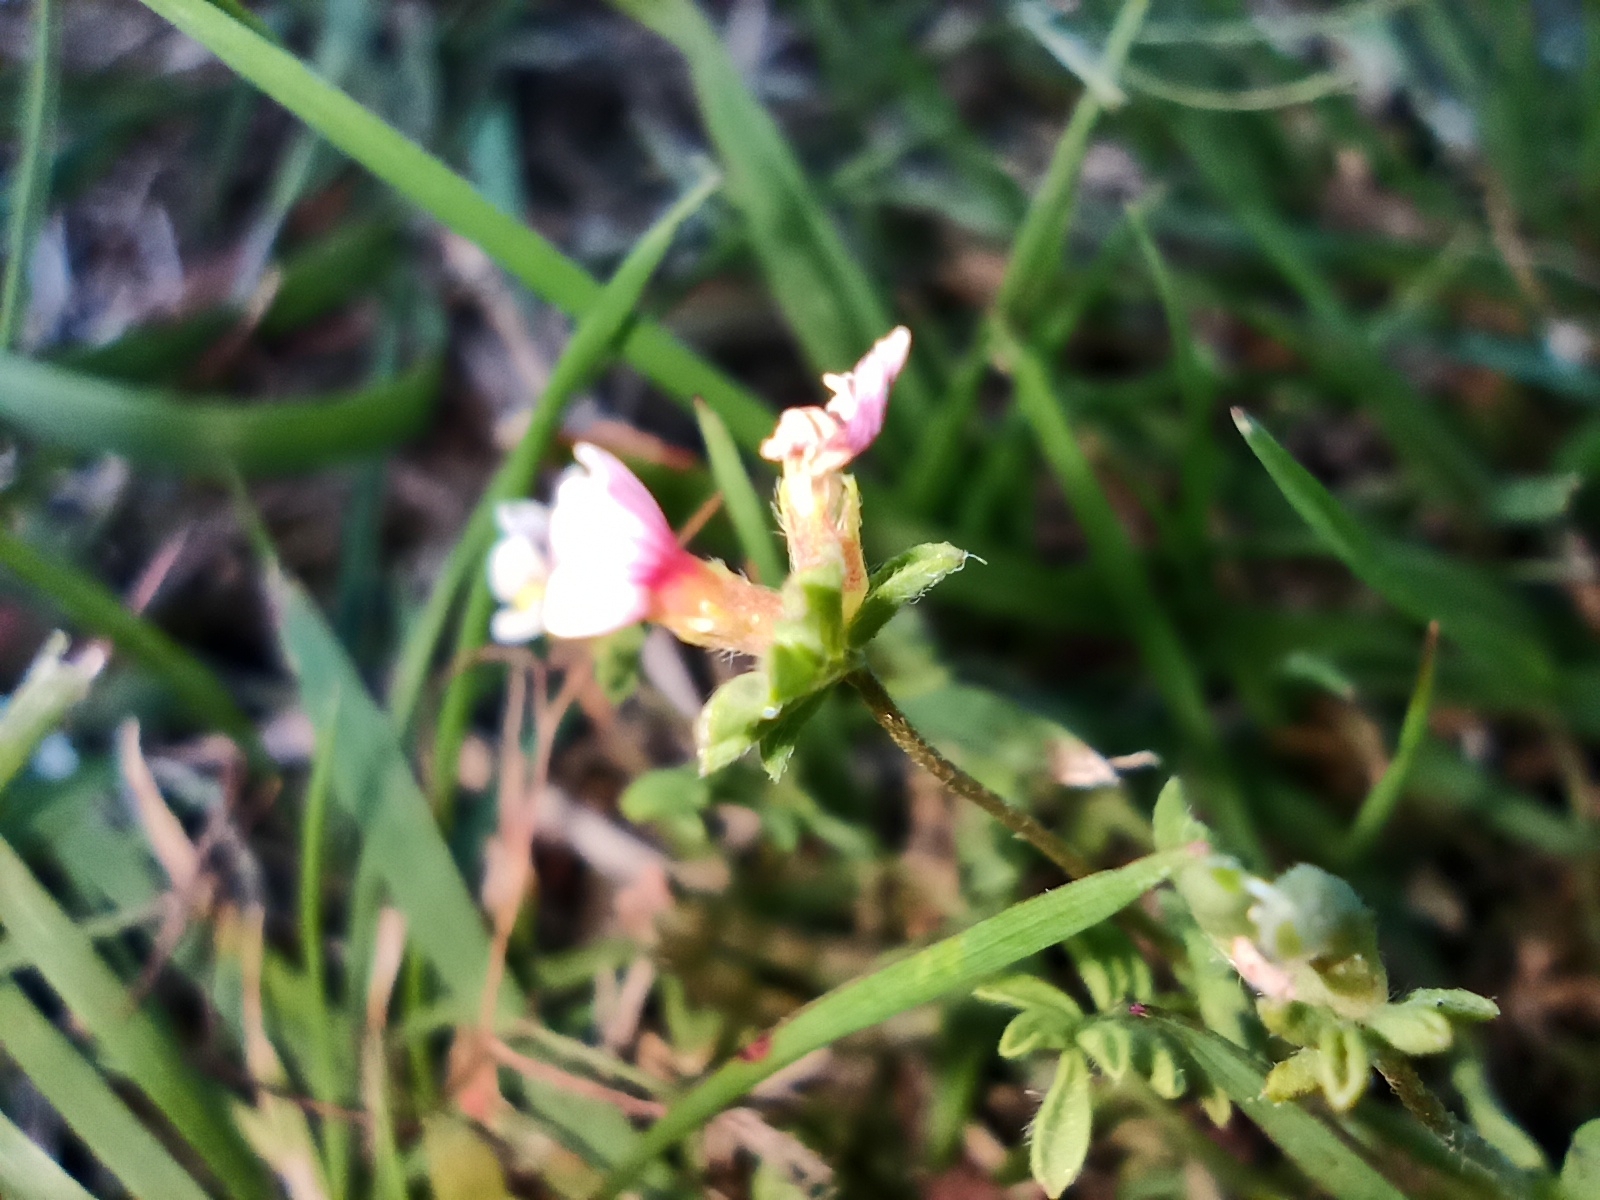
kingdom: Plantae
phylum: Tracheophyta
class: Magnoliopsida
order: Fabales
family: Fabaceae
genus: Ornithopus
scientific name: Ornithopus perpusillus
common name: Bird's-foot
